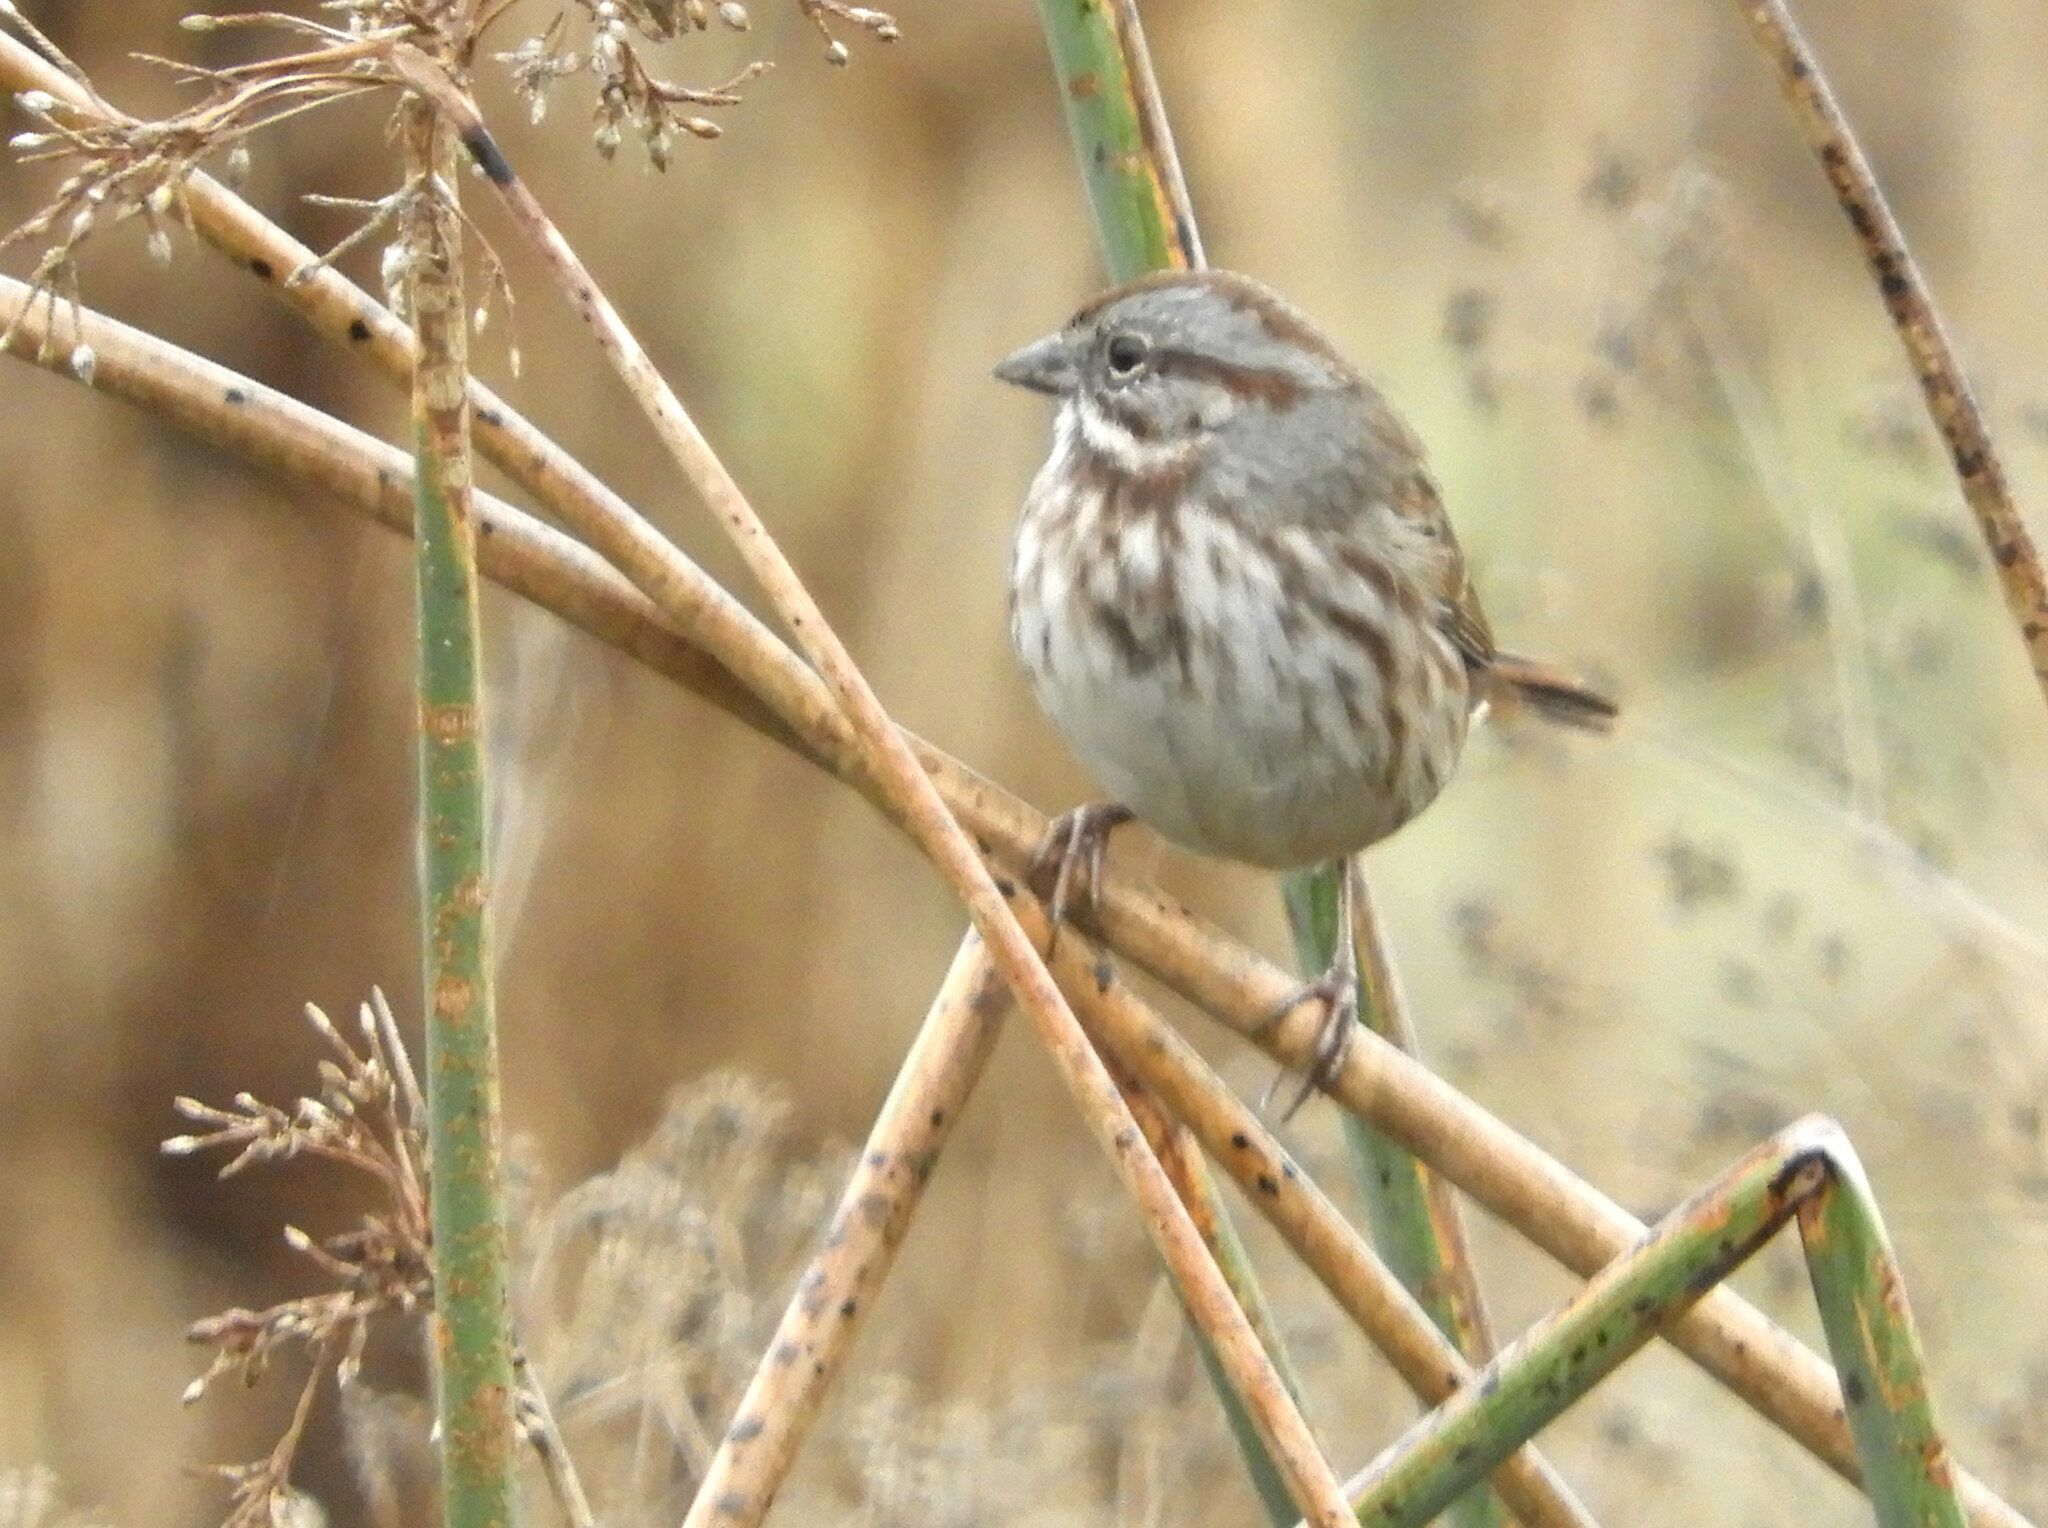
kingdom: Animalia
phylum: Chordata
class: Aves
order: Passeriformes
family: Passerellidae
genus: Melospiza
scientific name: Melospiza melodia
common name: Song sparrow
